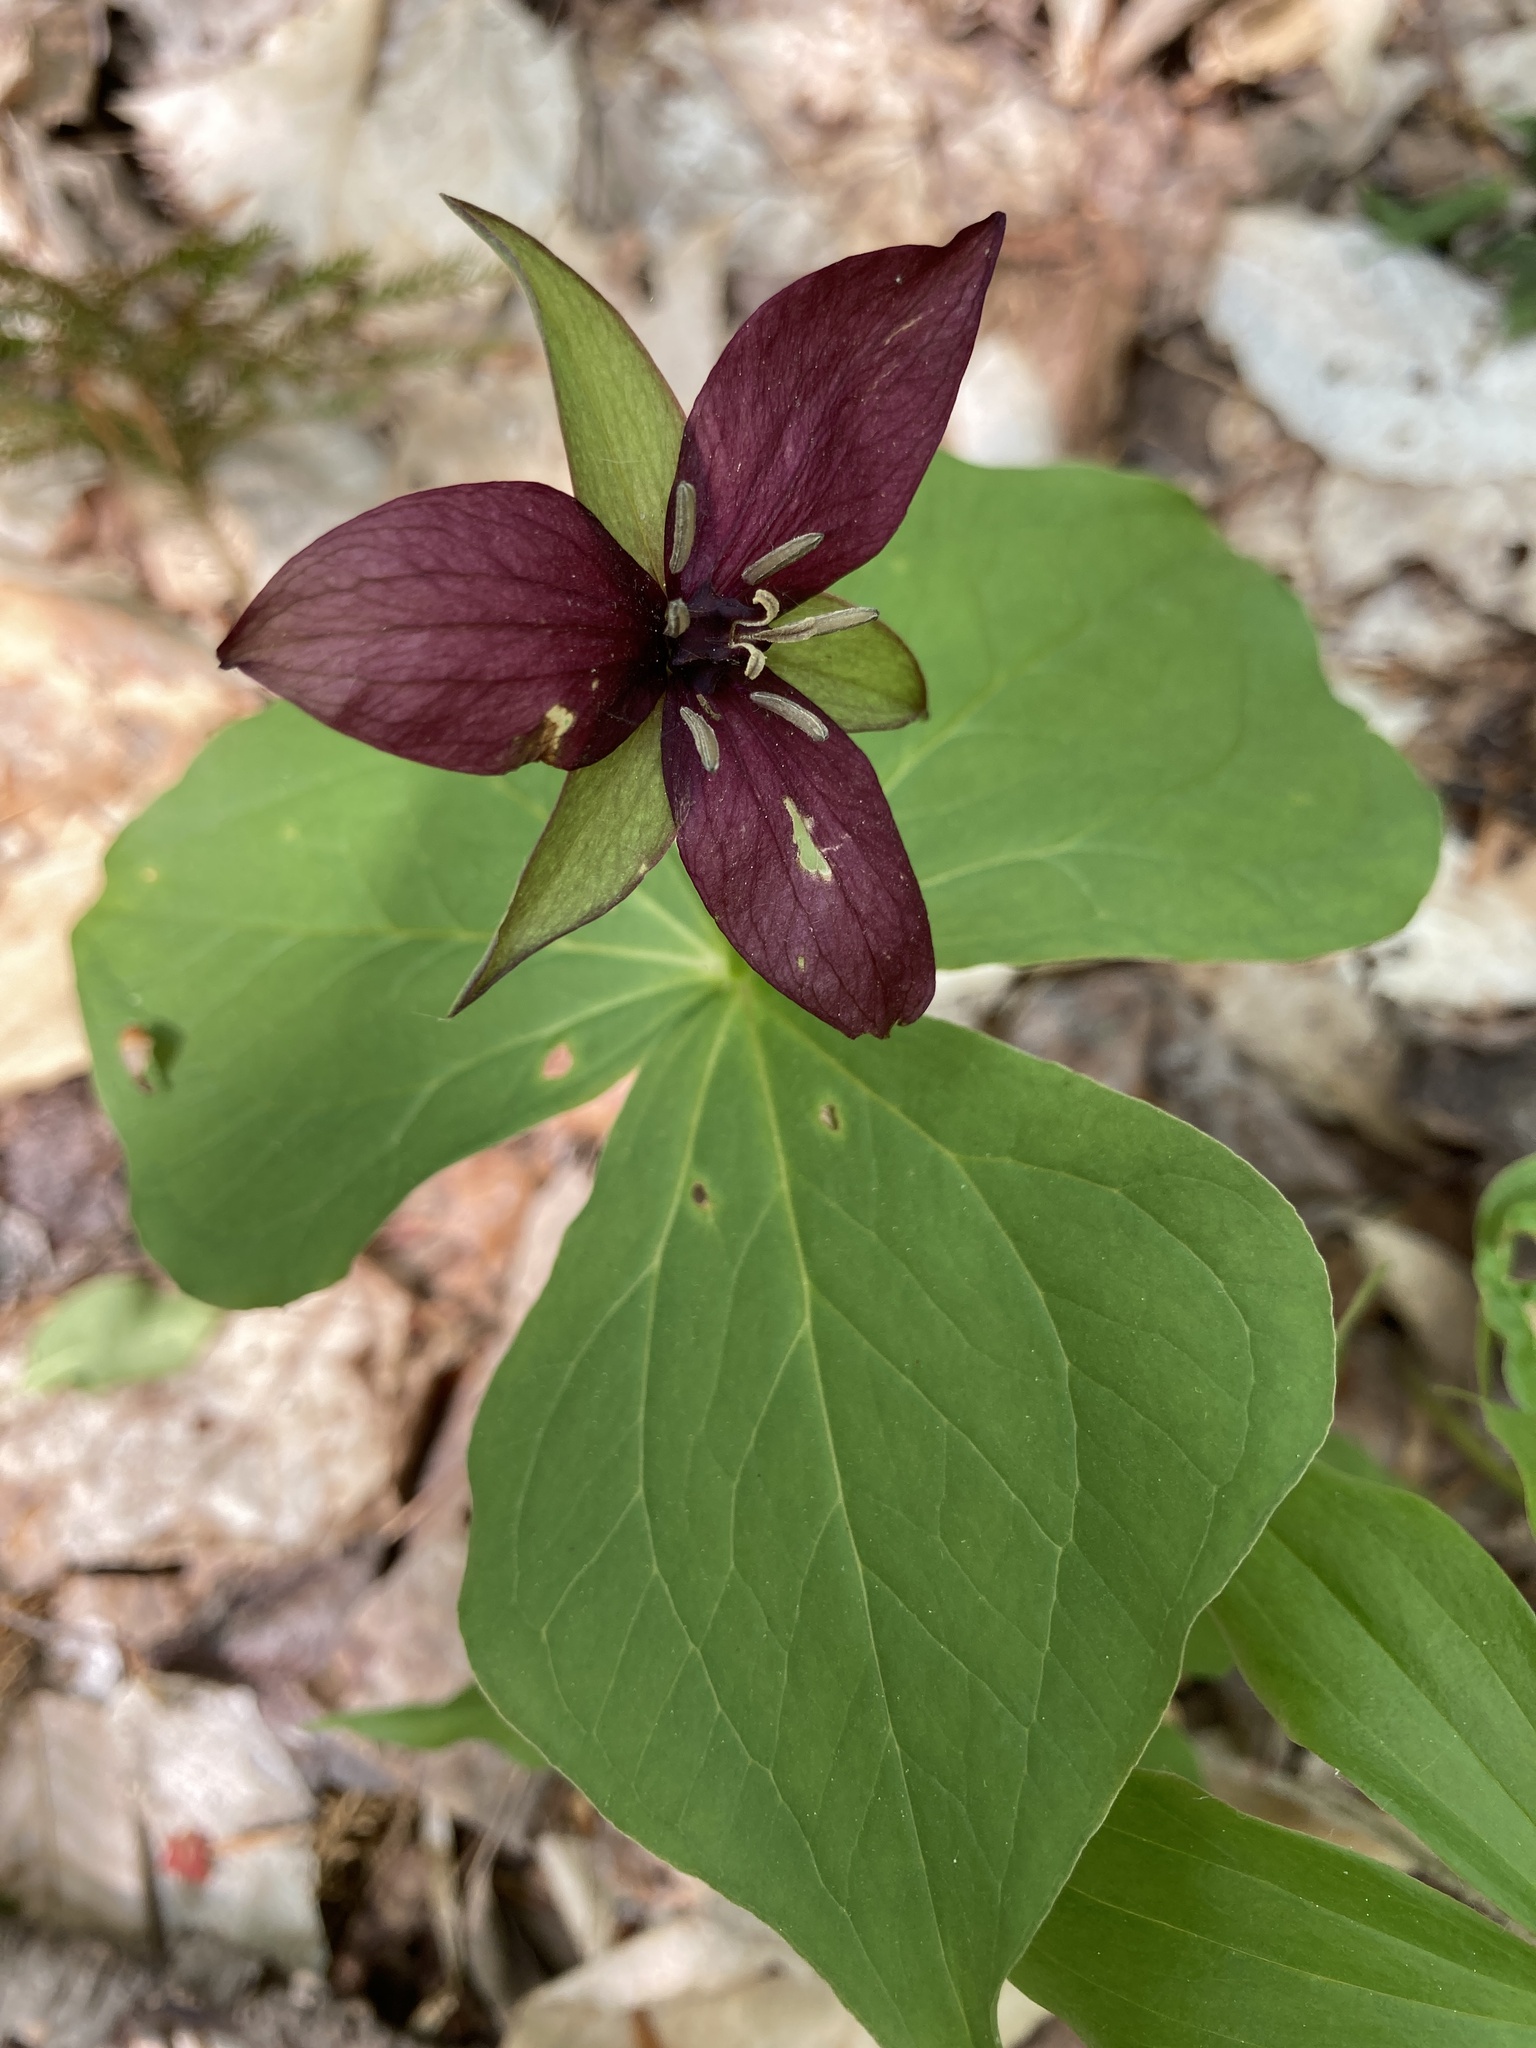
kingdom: Plantae
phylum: Tracheophyta
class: Liliopsida
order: Liliales
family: Melanthiaceae
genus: Trillium
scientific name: Trillium erectum
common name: Purple trillium
